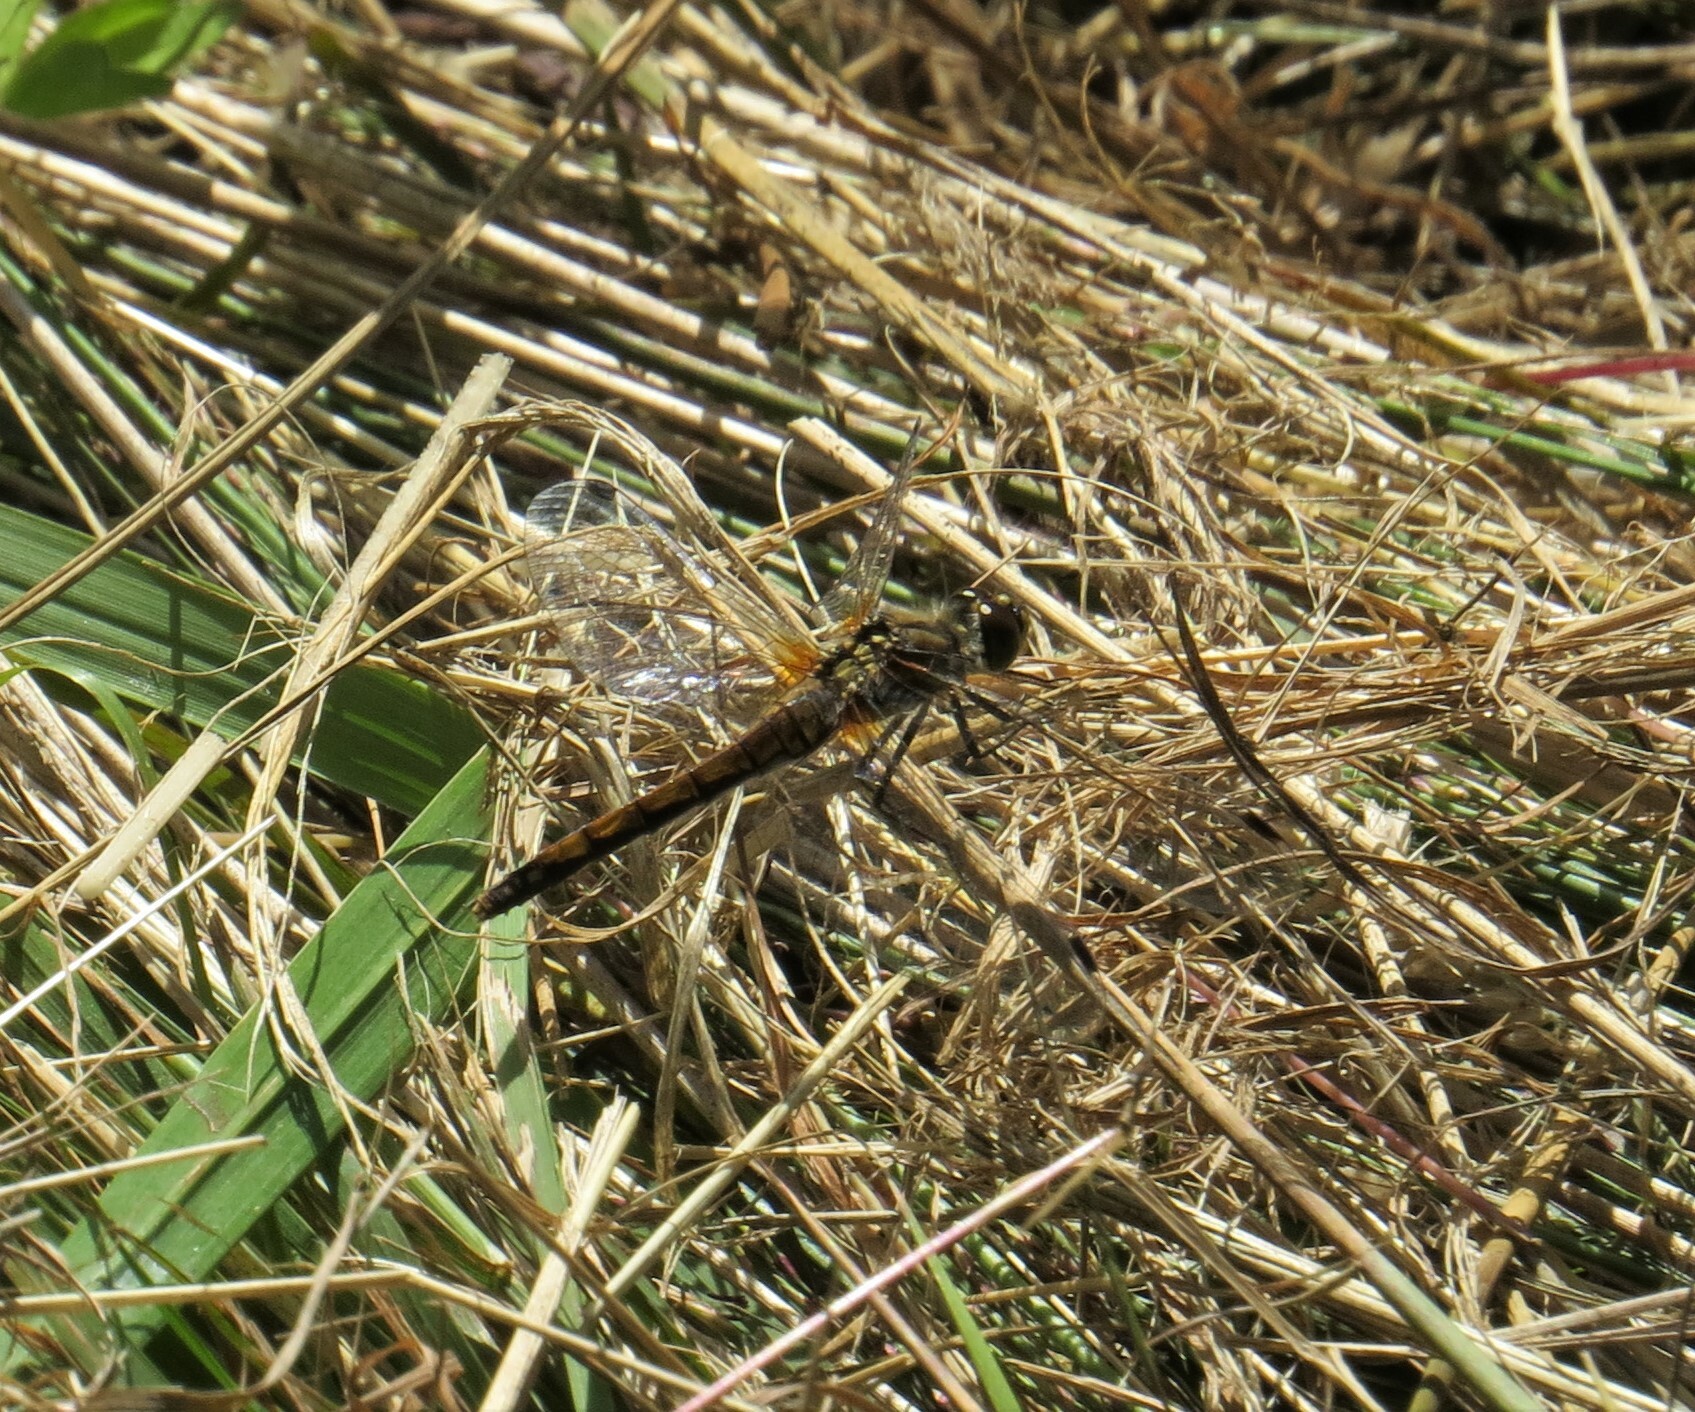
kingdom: Animalia
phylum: Arthropoda
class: Insecta
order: Odonata
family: Libellulidae
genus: Sympetrum
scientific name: Sympetrum danae
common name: Black darter
